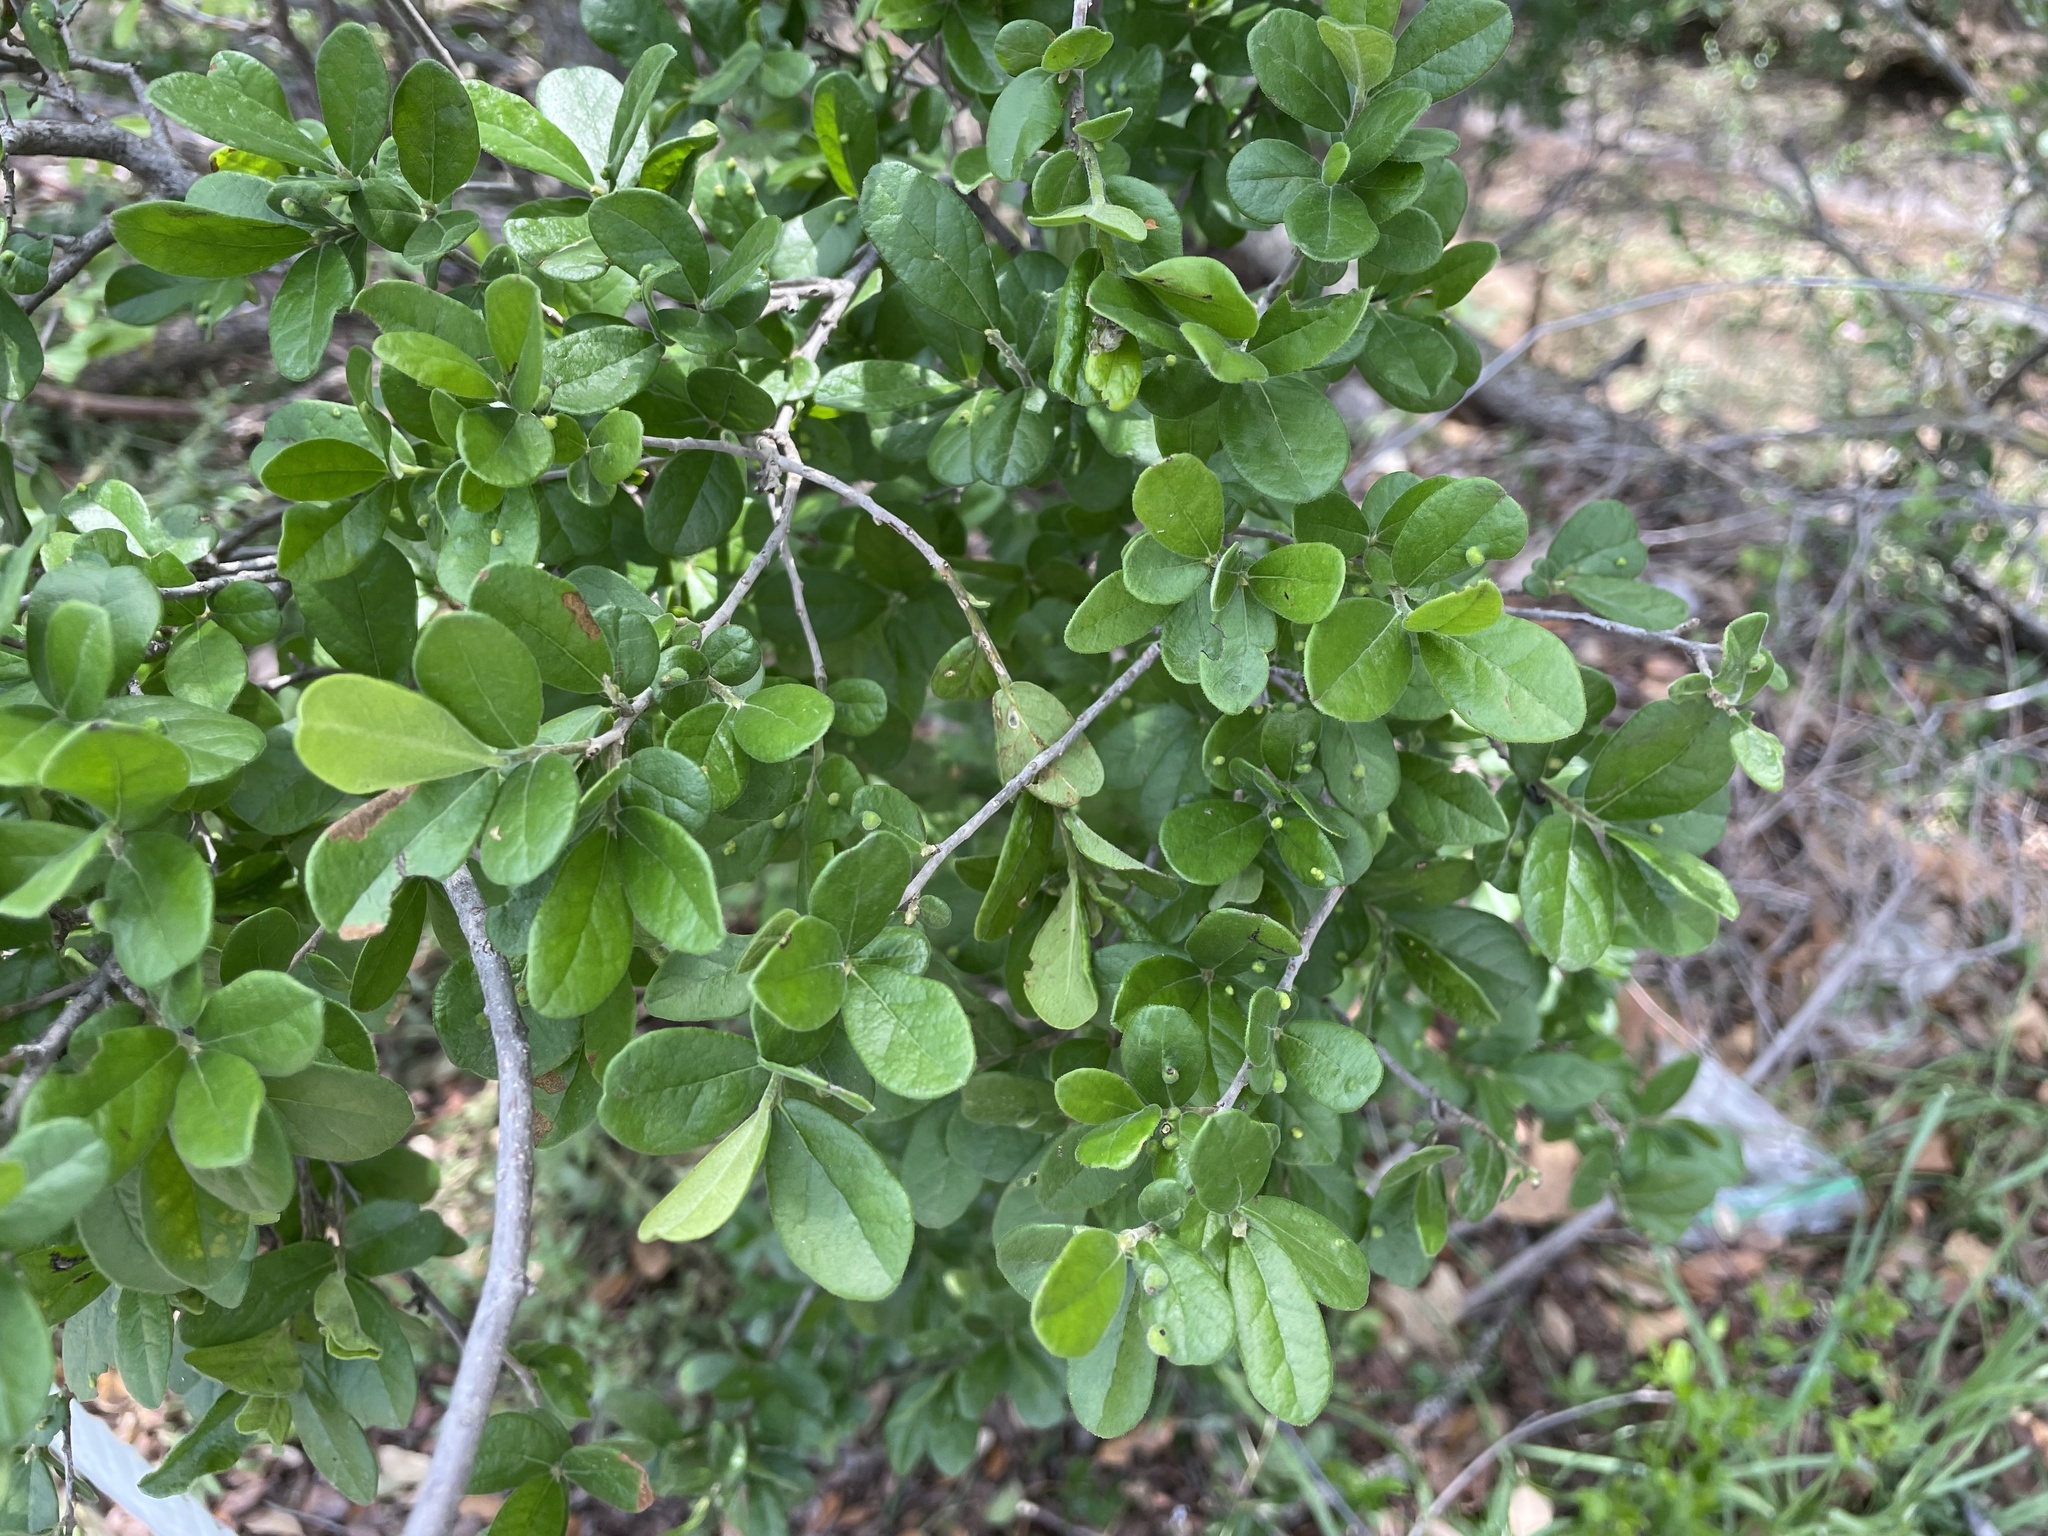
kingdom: Plantae
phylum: Tracheophyta
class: Magnoliopsida
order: Ericales
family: Ebenaceae
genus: Diospyros
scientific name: Diospyros texana
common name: Texas persimmon
